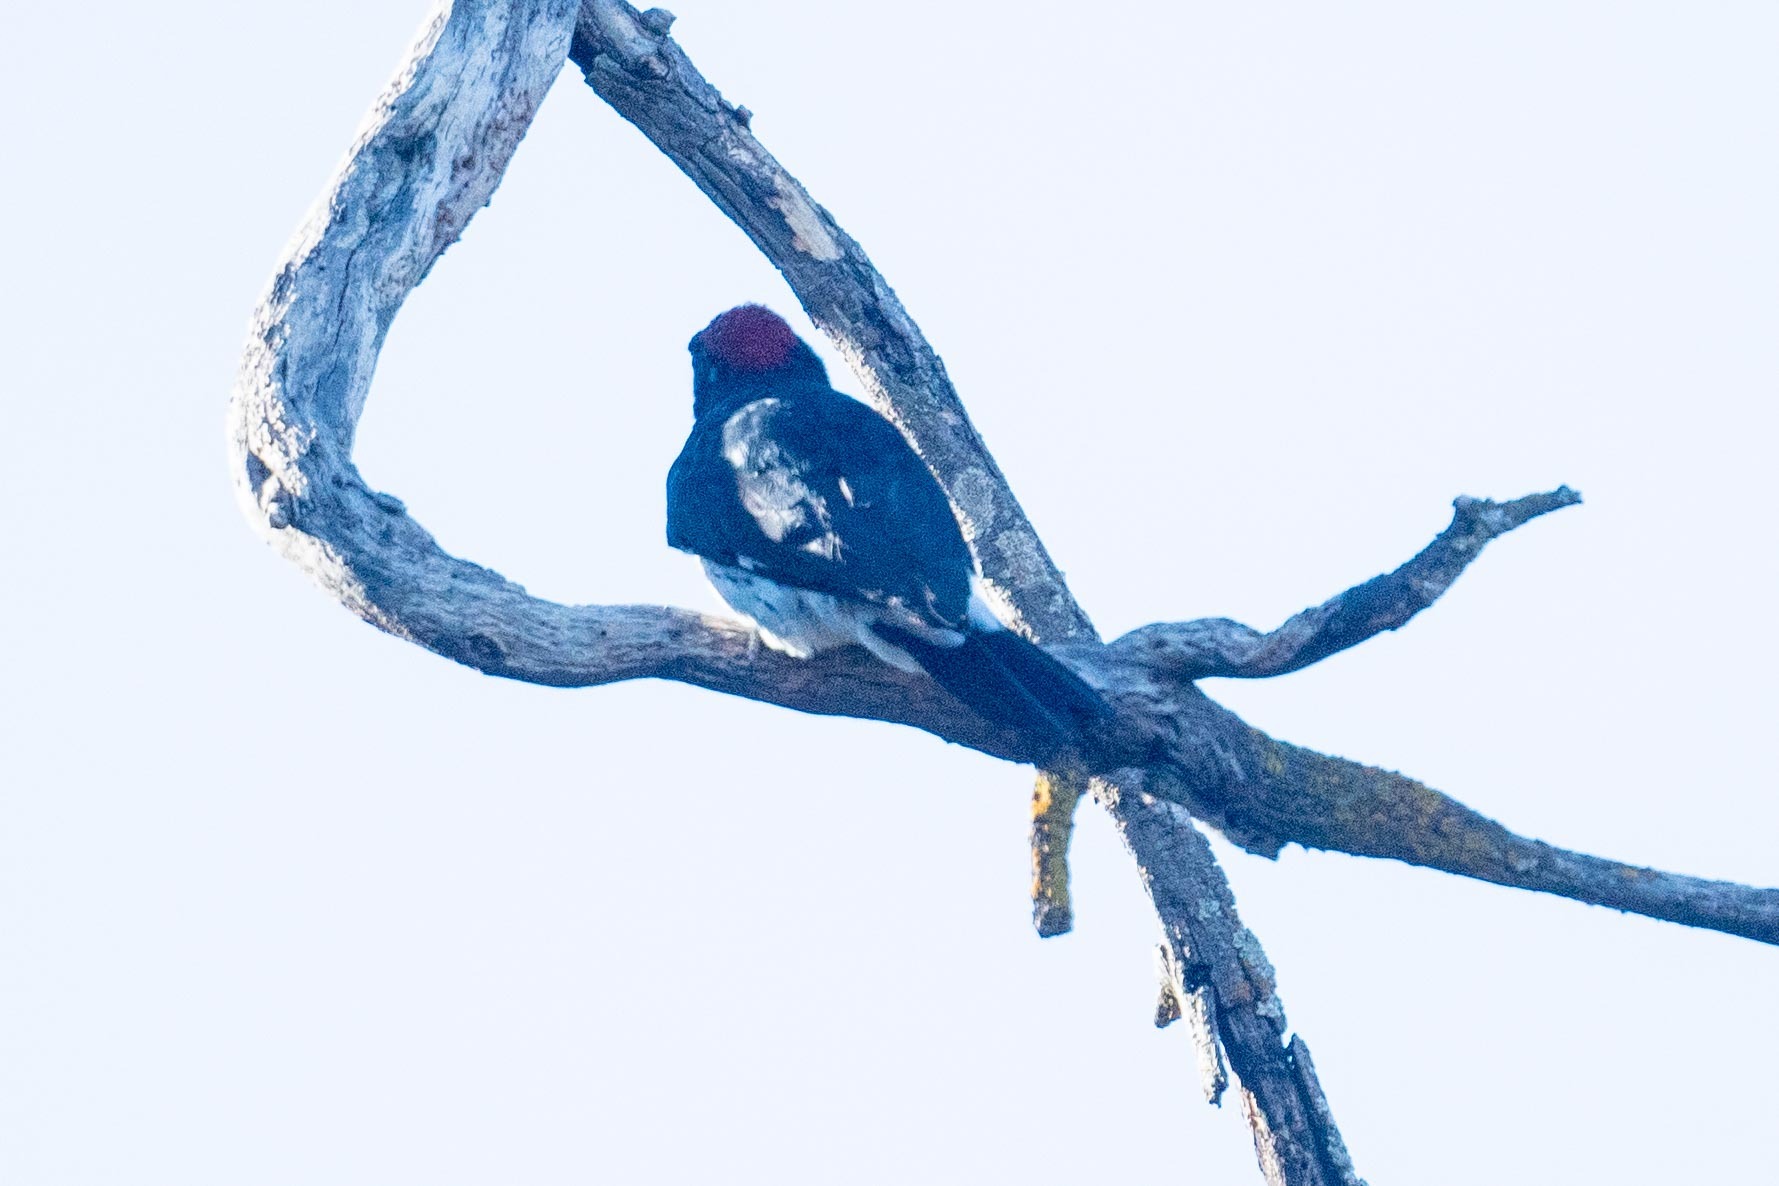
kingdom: Animalia
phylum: Chordata
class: Aves
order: Piciformes
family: Picidae
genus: Melanerpes
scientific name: Melanerpes formicivorus
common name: Acorn woodpecker
